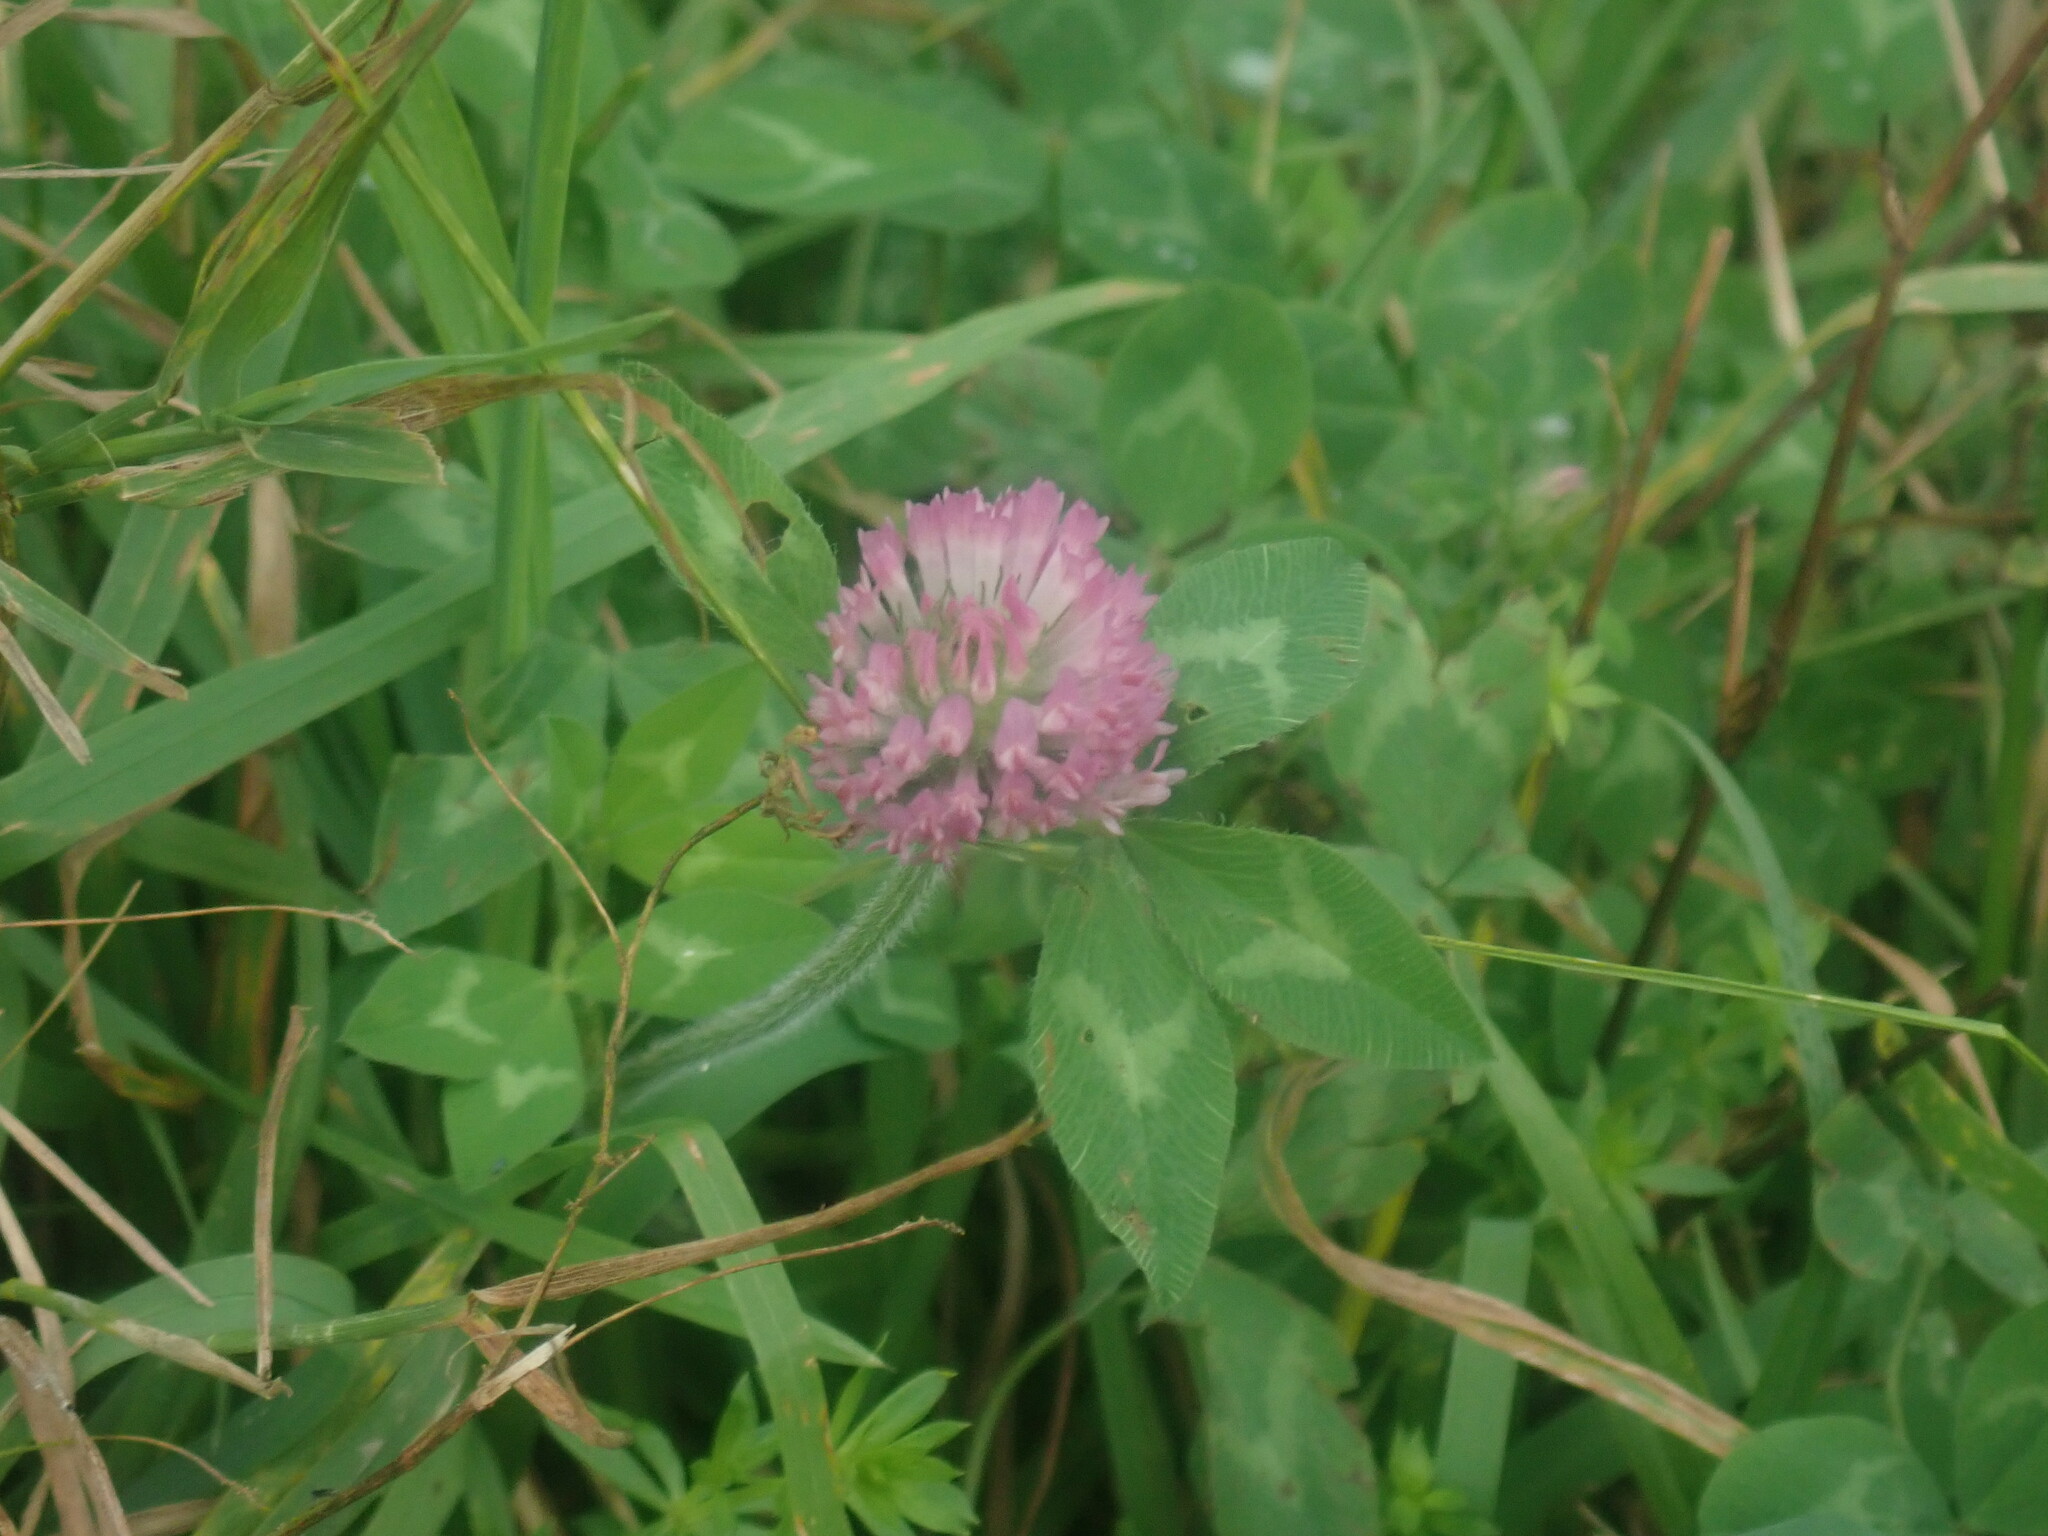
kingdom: Plantae
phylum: Tracheophyta
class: Magnoliopsida
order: Fabales
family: Fabaceae
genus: Trifolium
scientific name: Trifolium pratense
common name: Red clover
